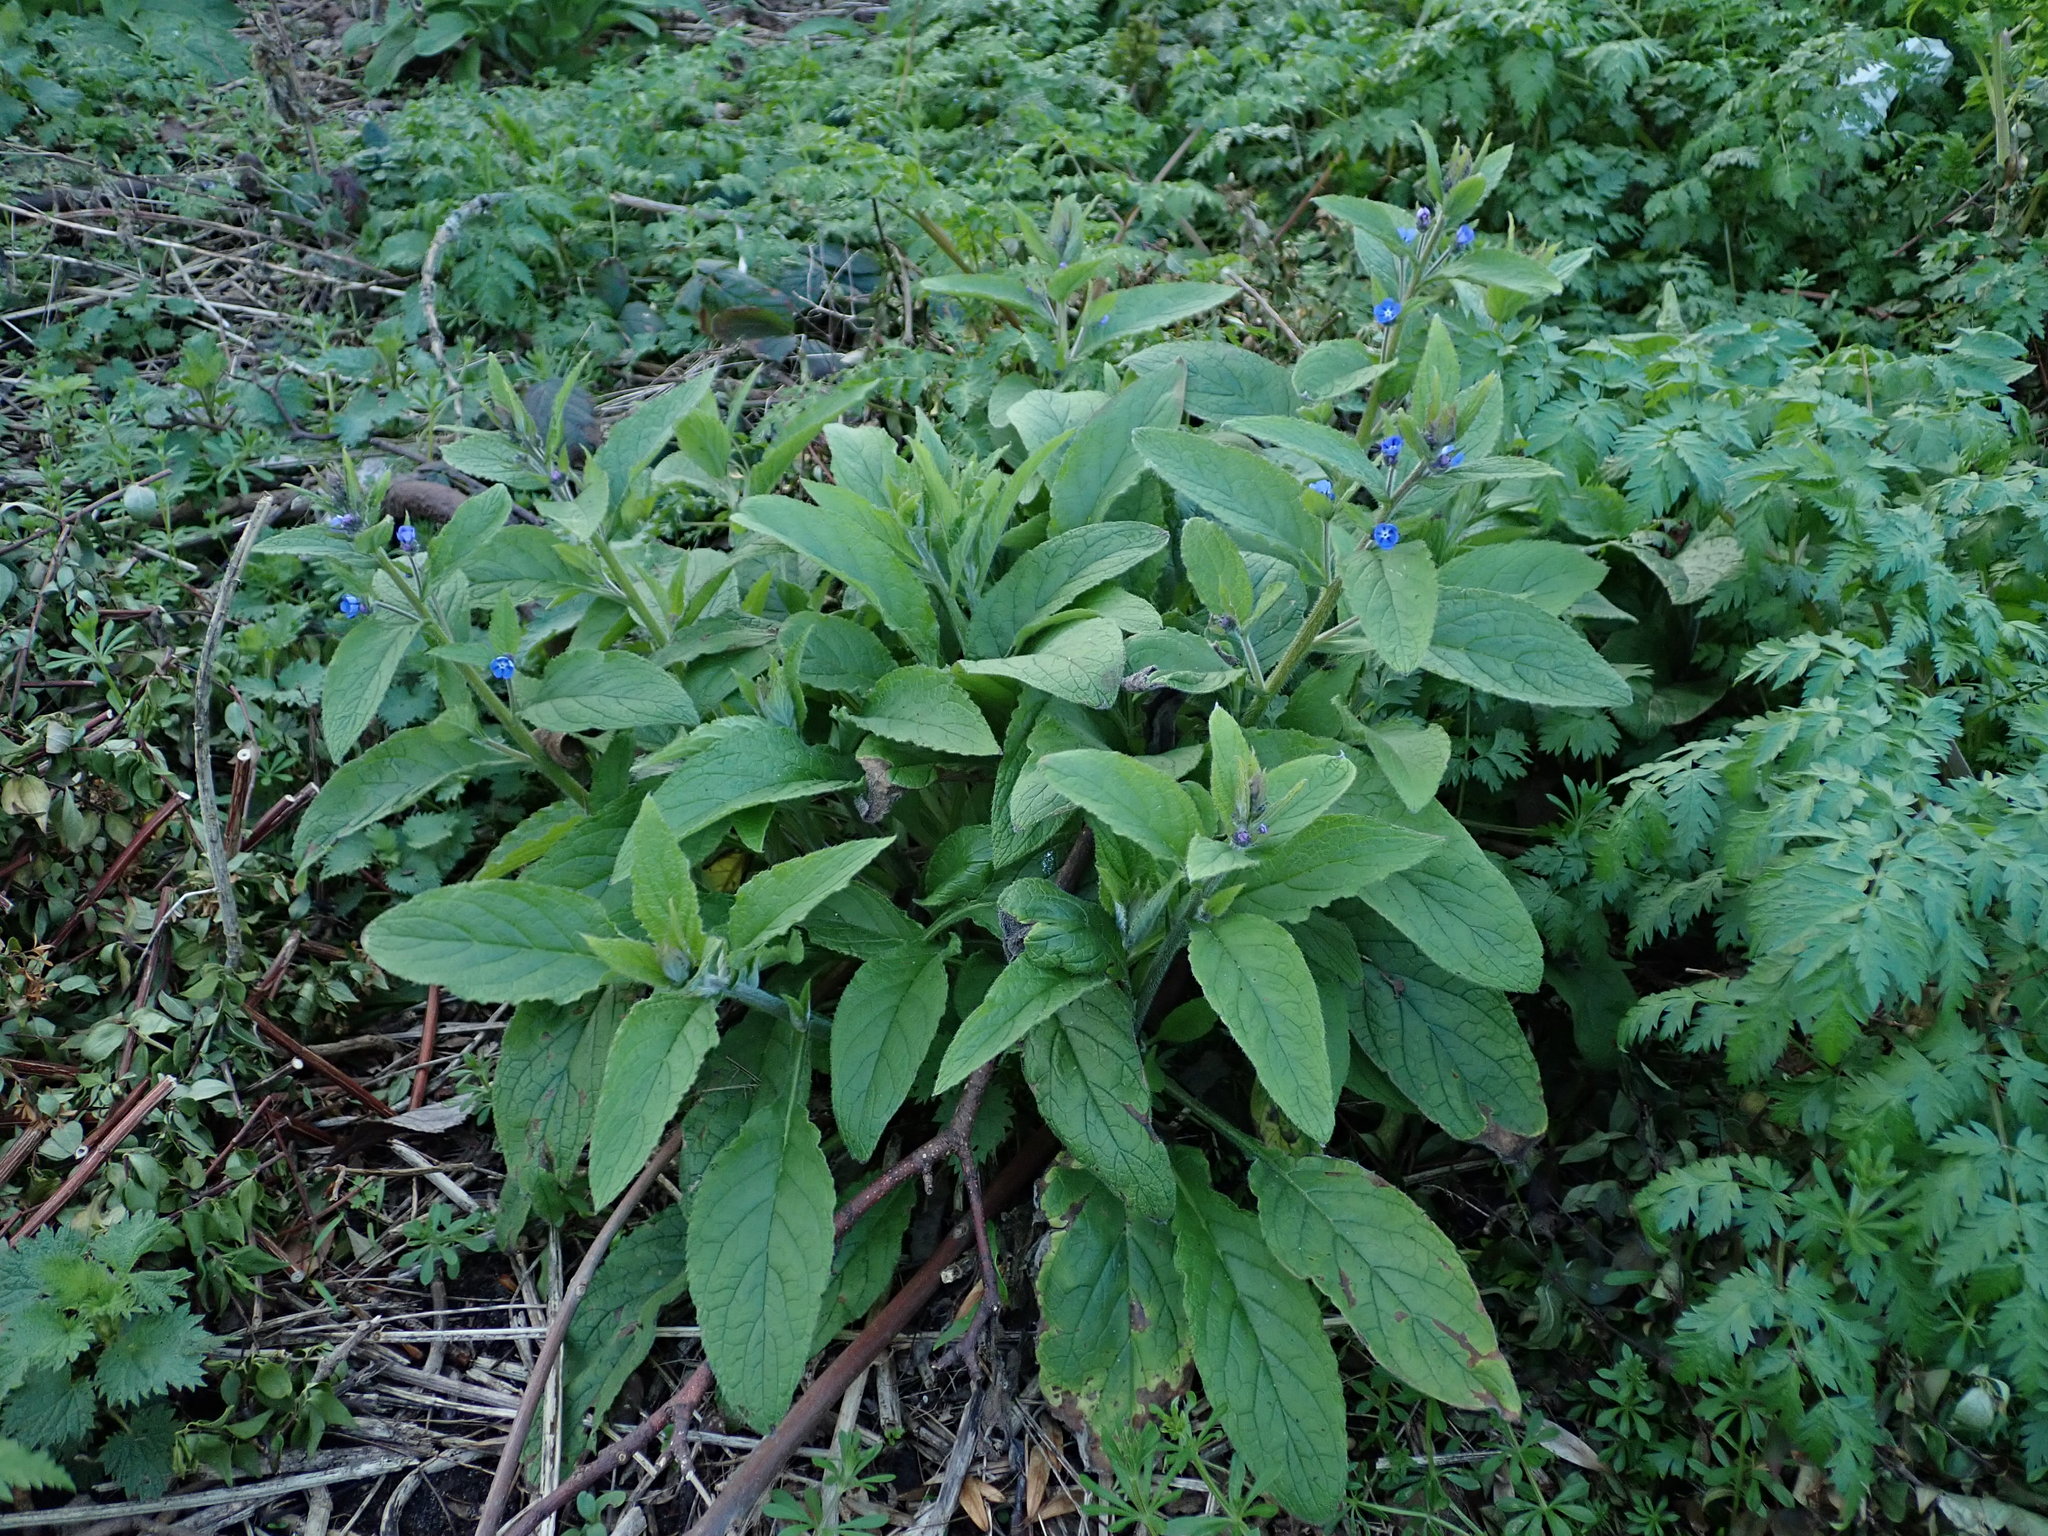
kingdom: Plantae
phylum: Tracheophyta
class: Magnoliopsida
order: Boraginales
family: Boraginaceae
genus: Pentaglottis
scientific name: Pentaglottis sempervirens
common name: Green alkanet
